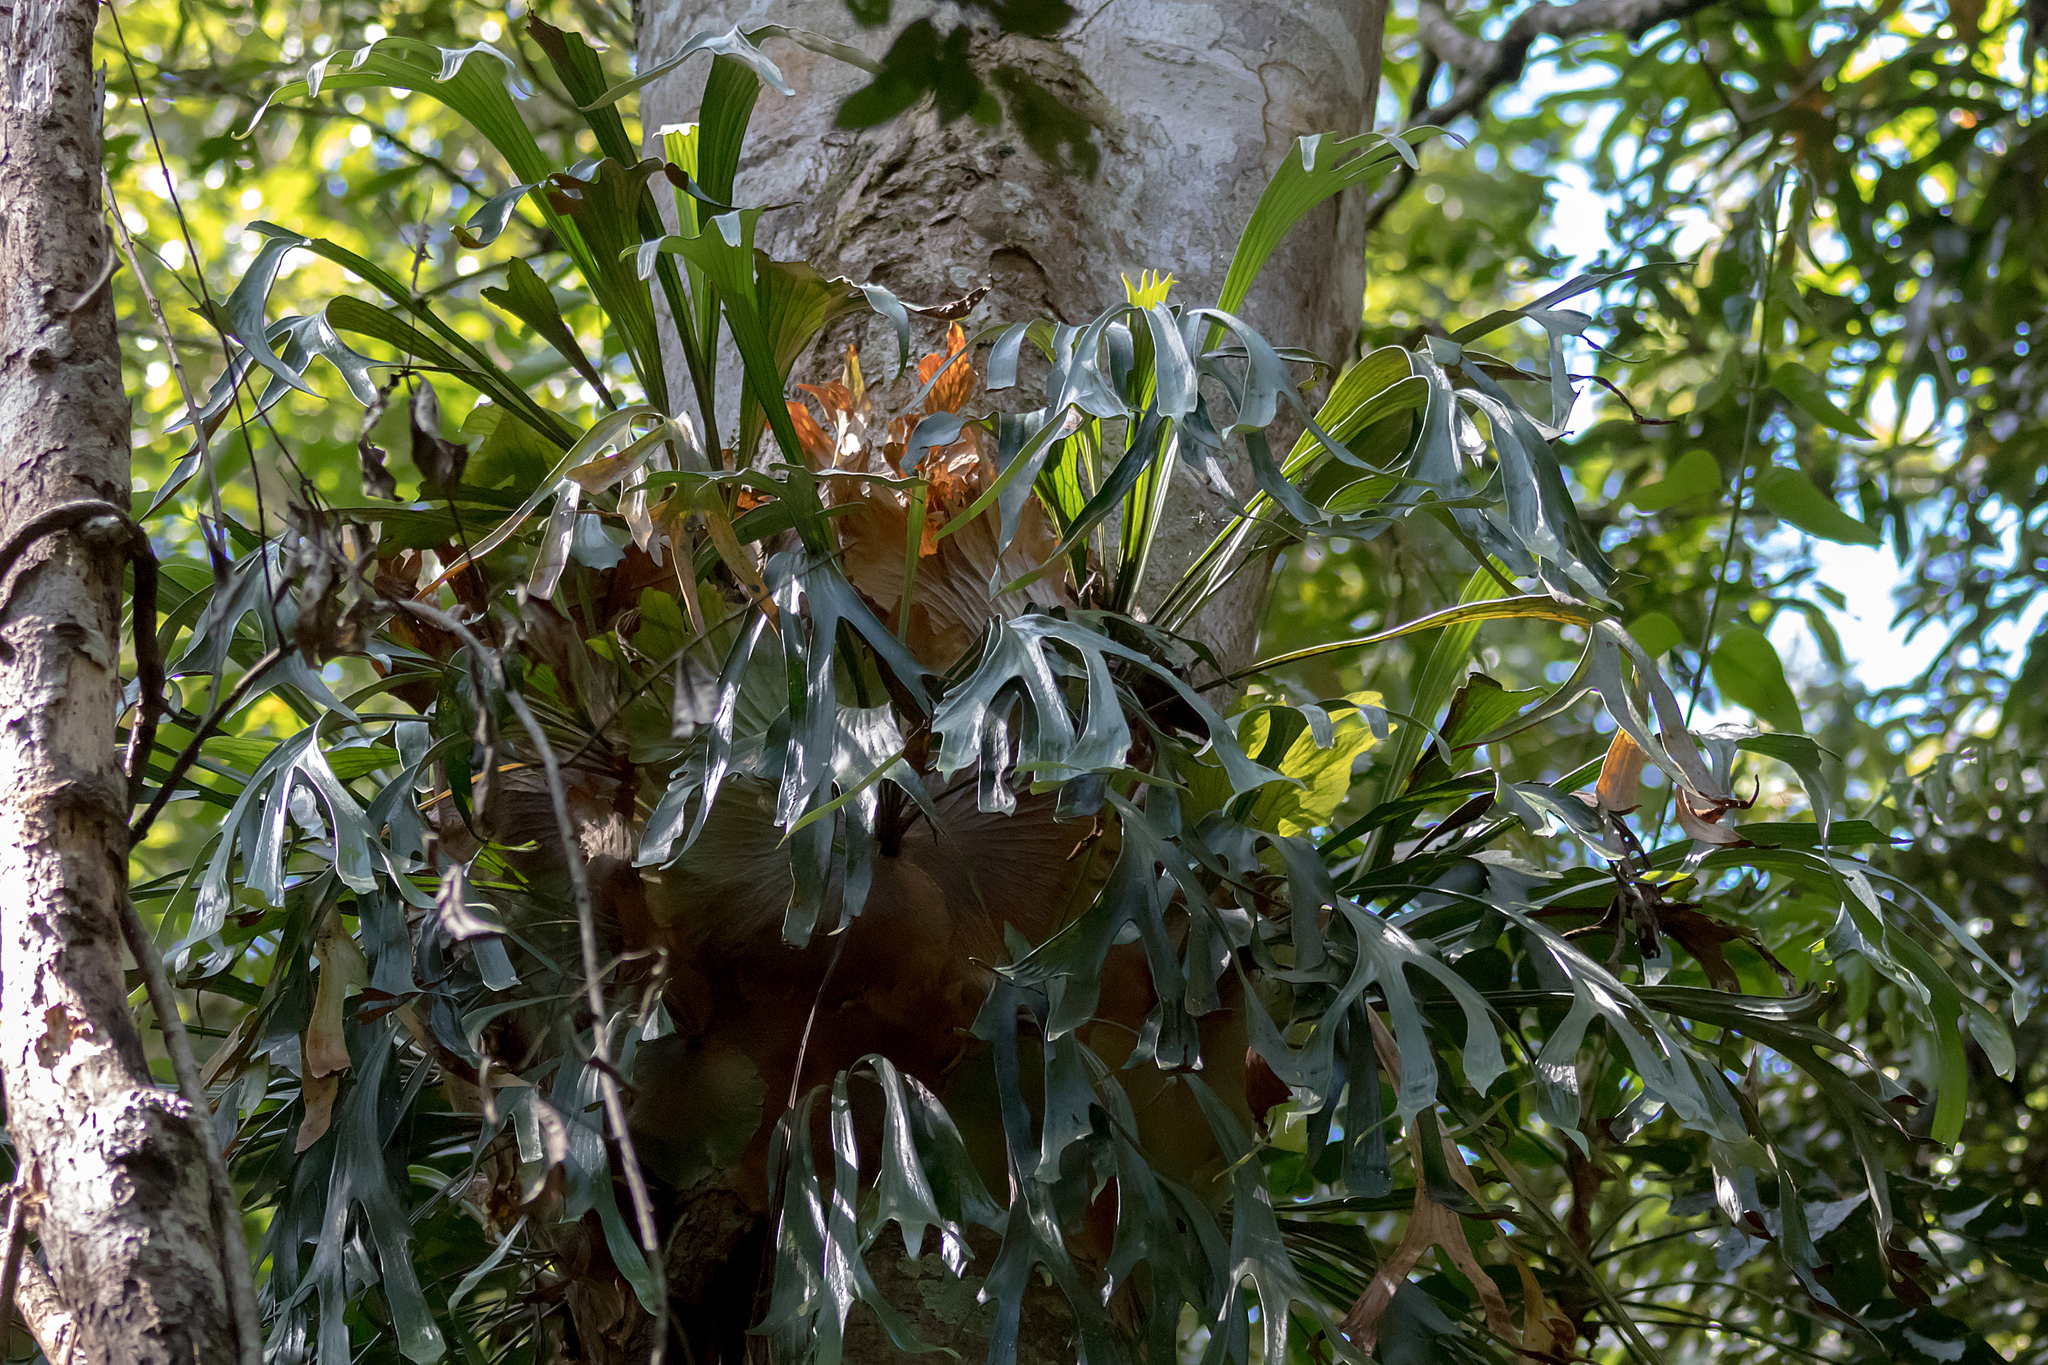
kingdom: Plantae
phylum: Tracheophyta
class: Polypodiopsida
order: Polypodiales
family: Polypodiaceae
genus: Platycerium
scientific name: Platycerium bifurcatum
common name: Elkhorn fern
